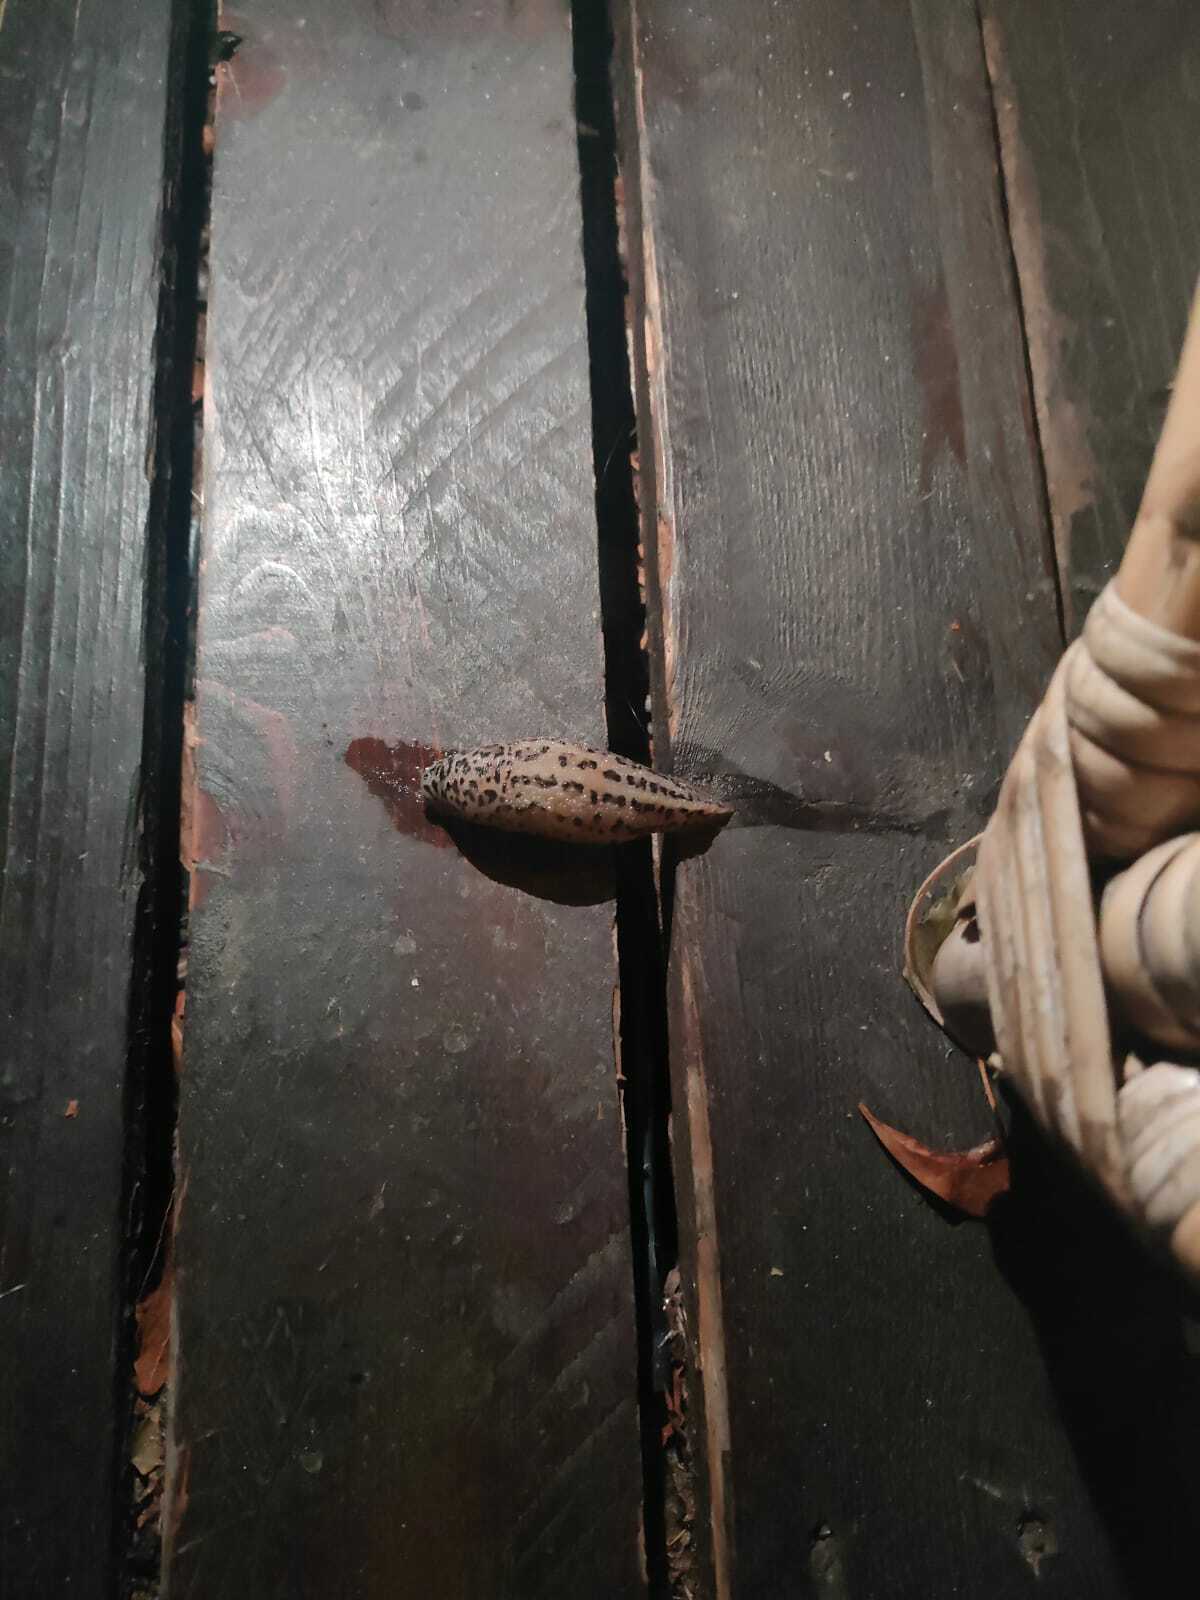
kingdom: Animalia
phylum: Mollusca
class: Gastropoda
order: Stylommatophora
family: Limacidae
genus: Limax
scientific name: Limax maximus
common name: Great grey slug
